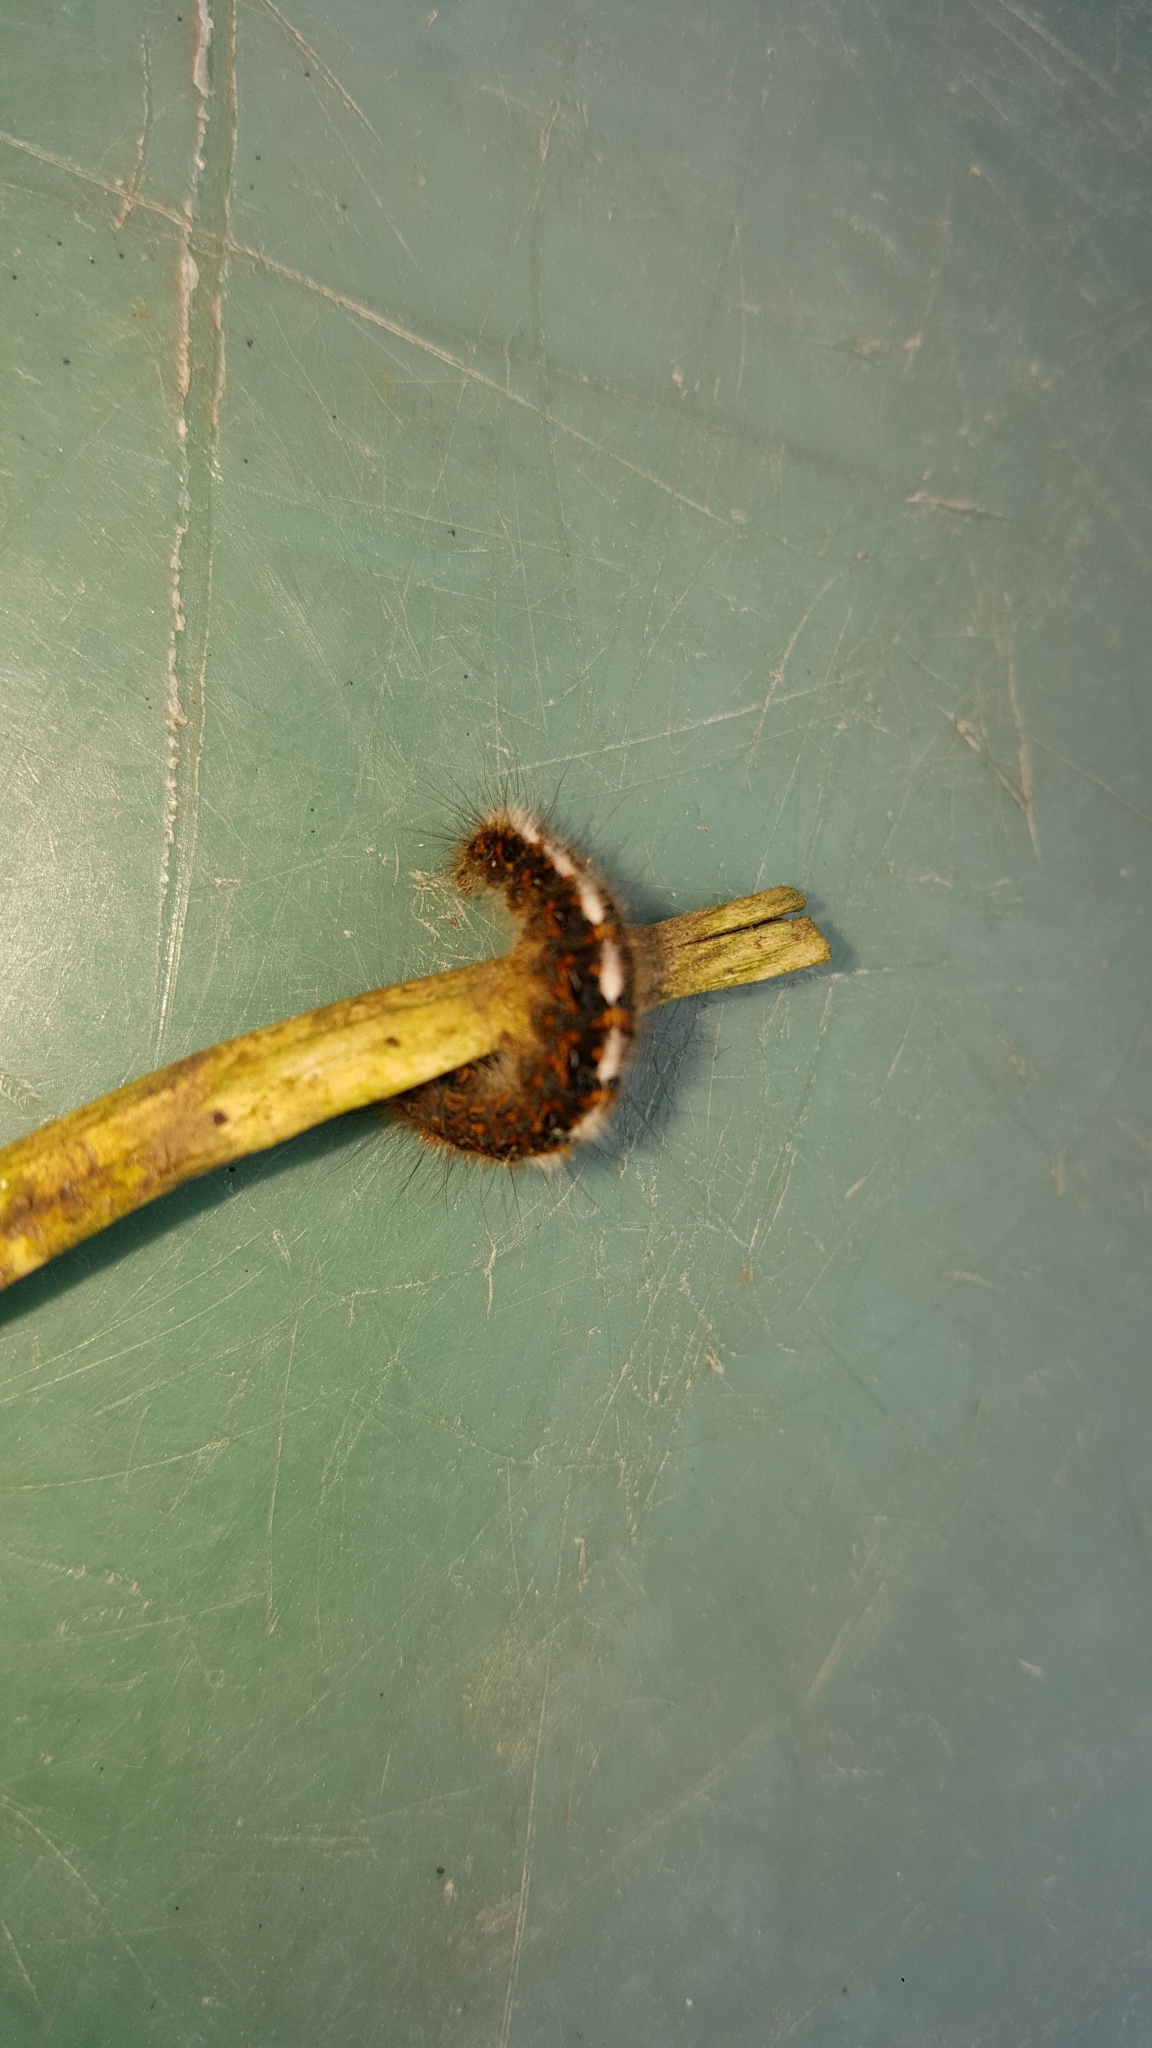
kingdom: Animalia
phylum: Arthropoda
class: Insecta
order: Lepidoptera
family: Lasiocampidae
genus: Lasiocampa
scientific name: Lasiocampa quercus
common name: Oak eggar
